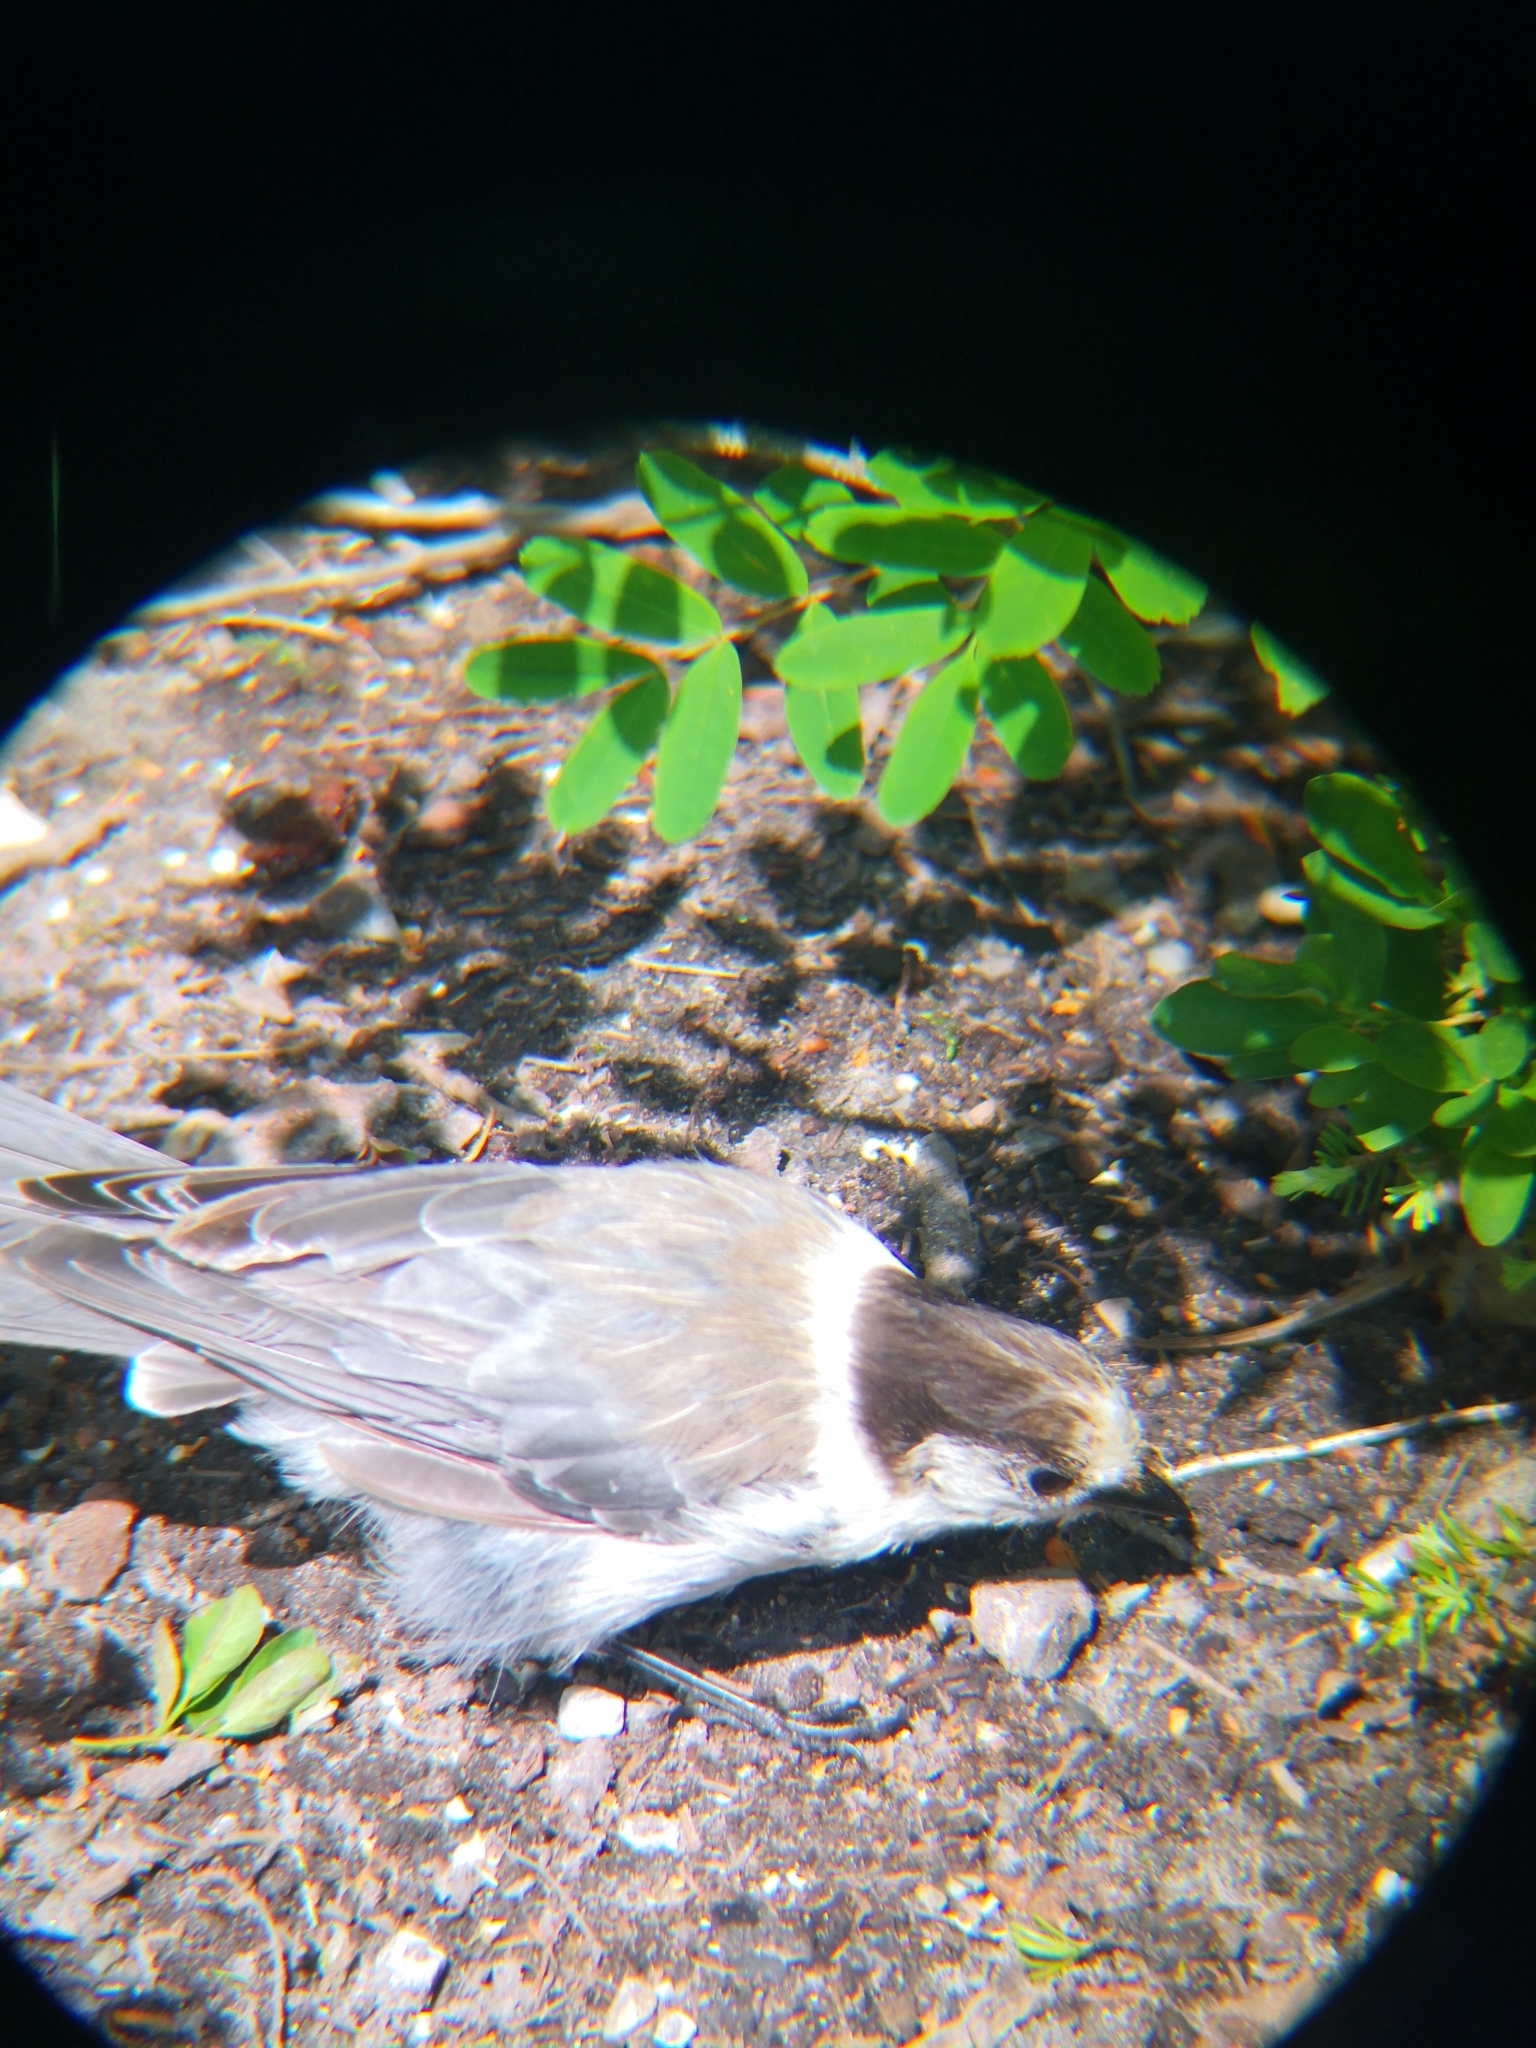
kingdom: Animalia
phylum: Chordata
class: Aves
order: Passeriformes
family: Corvidae
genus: Perisoreus
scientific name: Perisoreus canadensis
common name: Gray jay
